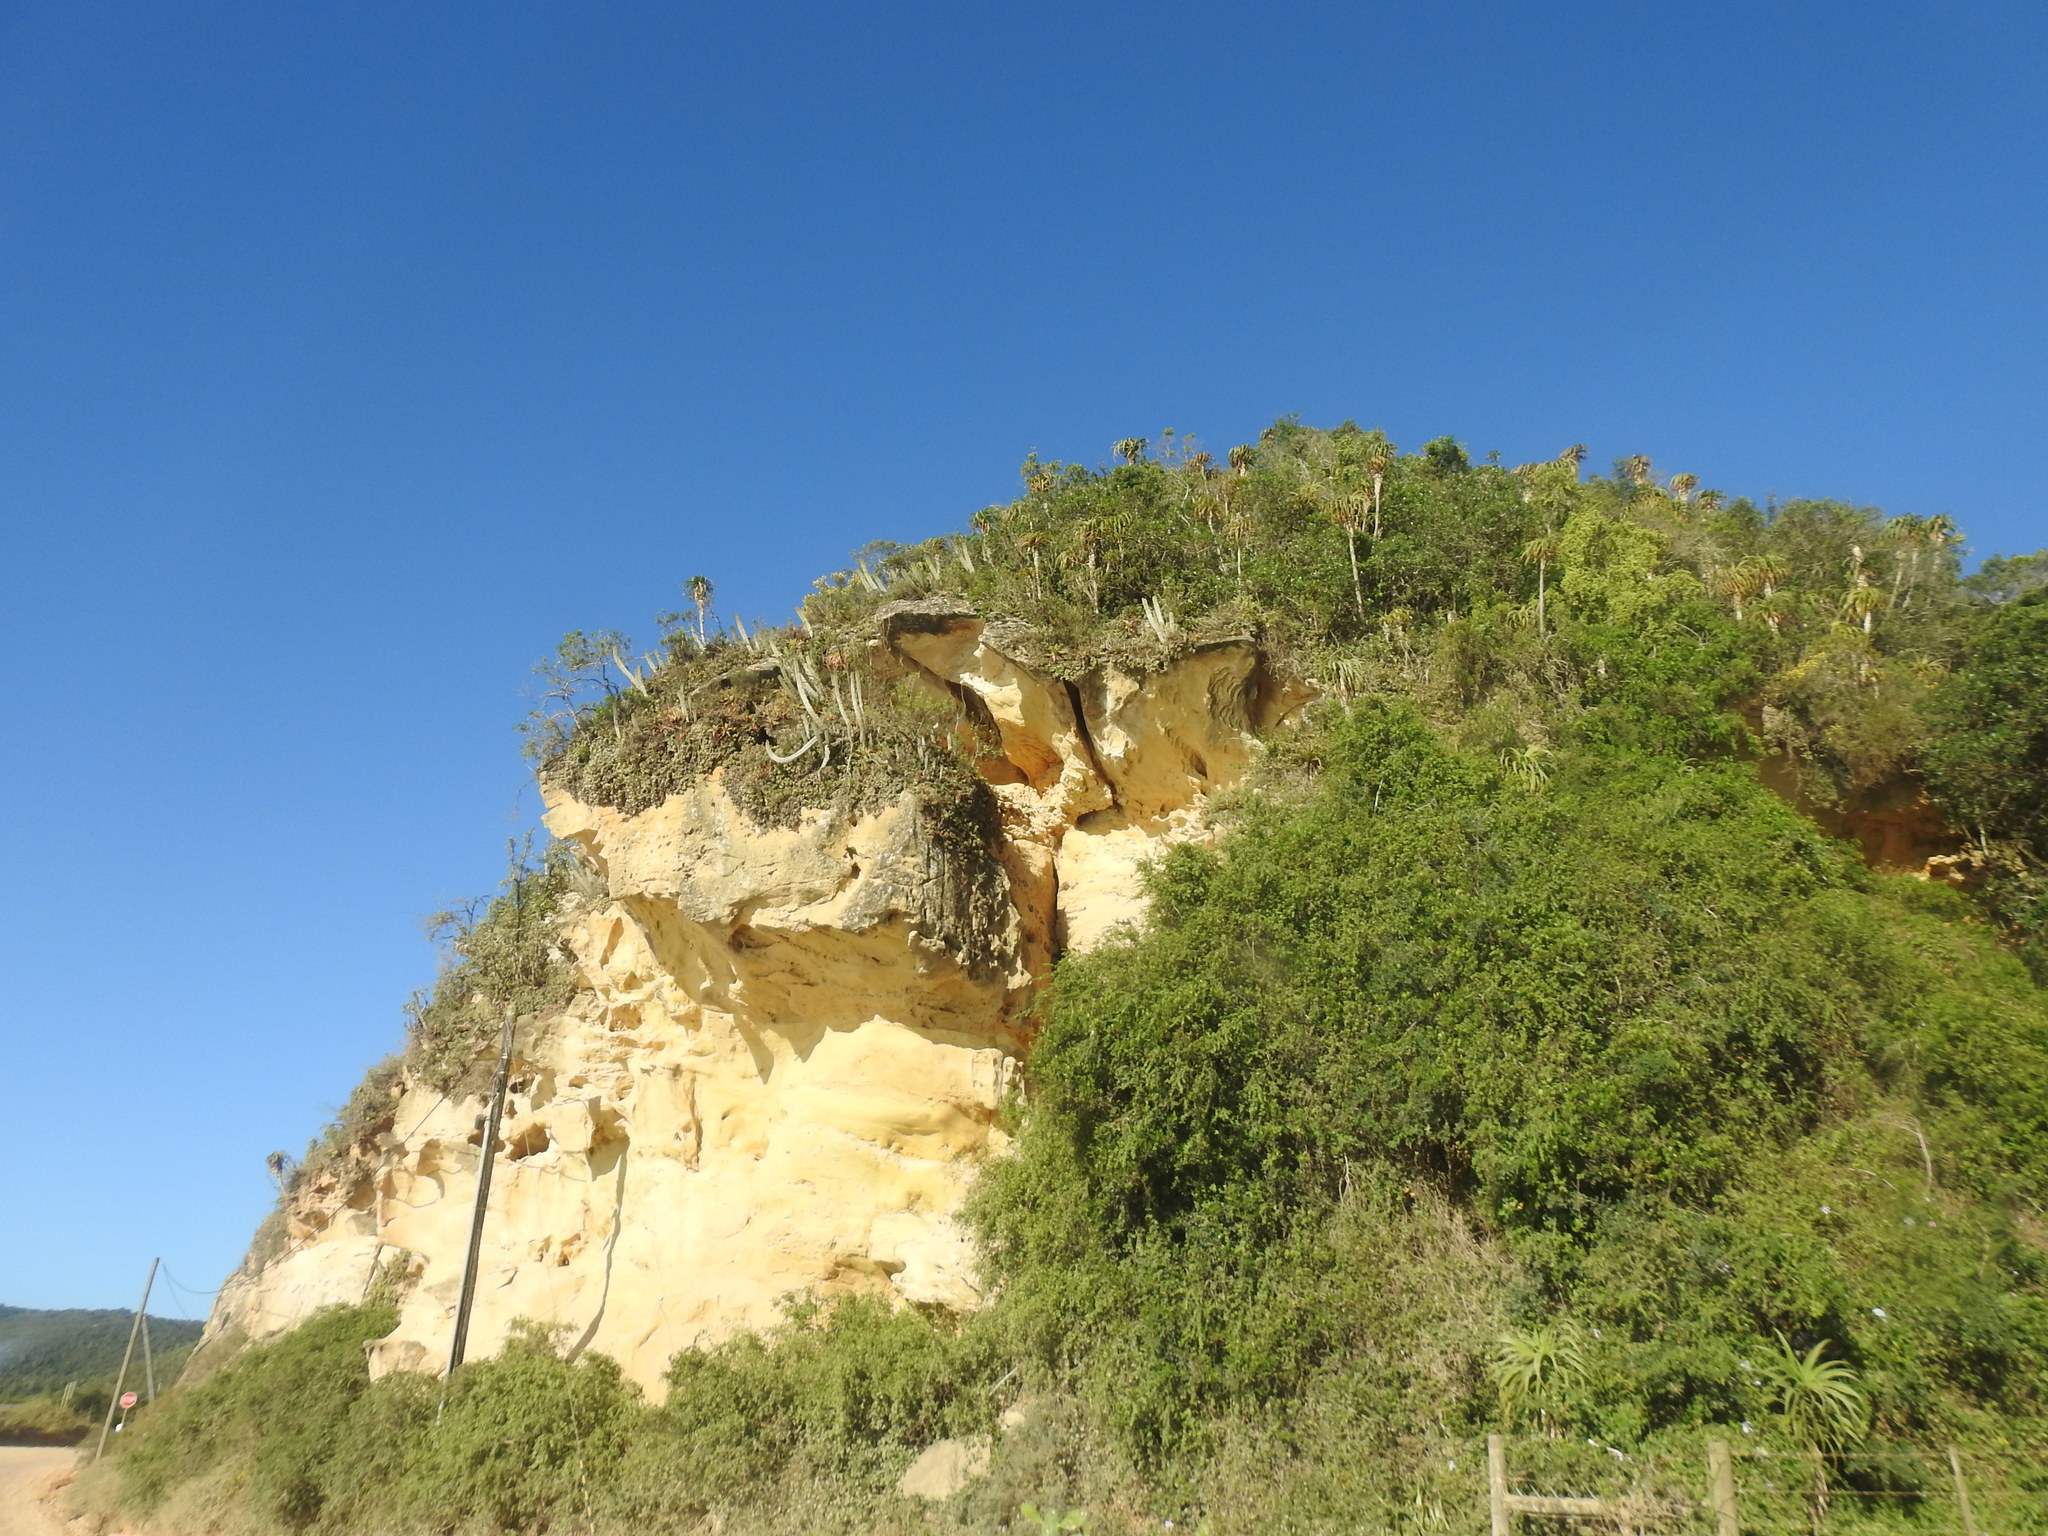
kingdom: Plantae
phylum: Tracheophyta
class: Liliopsida
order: Asparagales
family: Asphodelaceae
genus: Aloe
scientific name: Aloe pluridens
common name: French aloe
